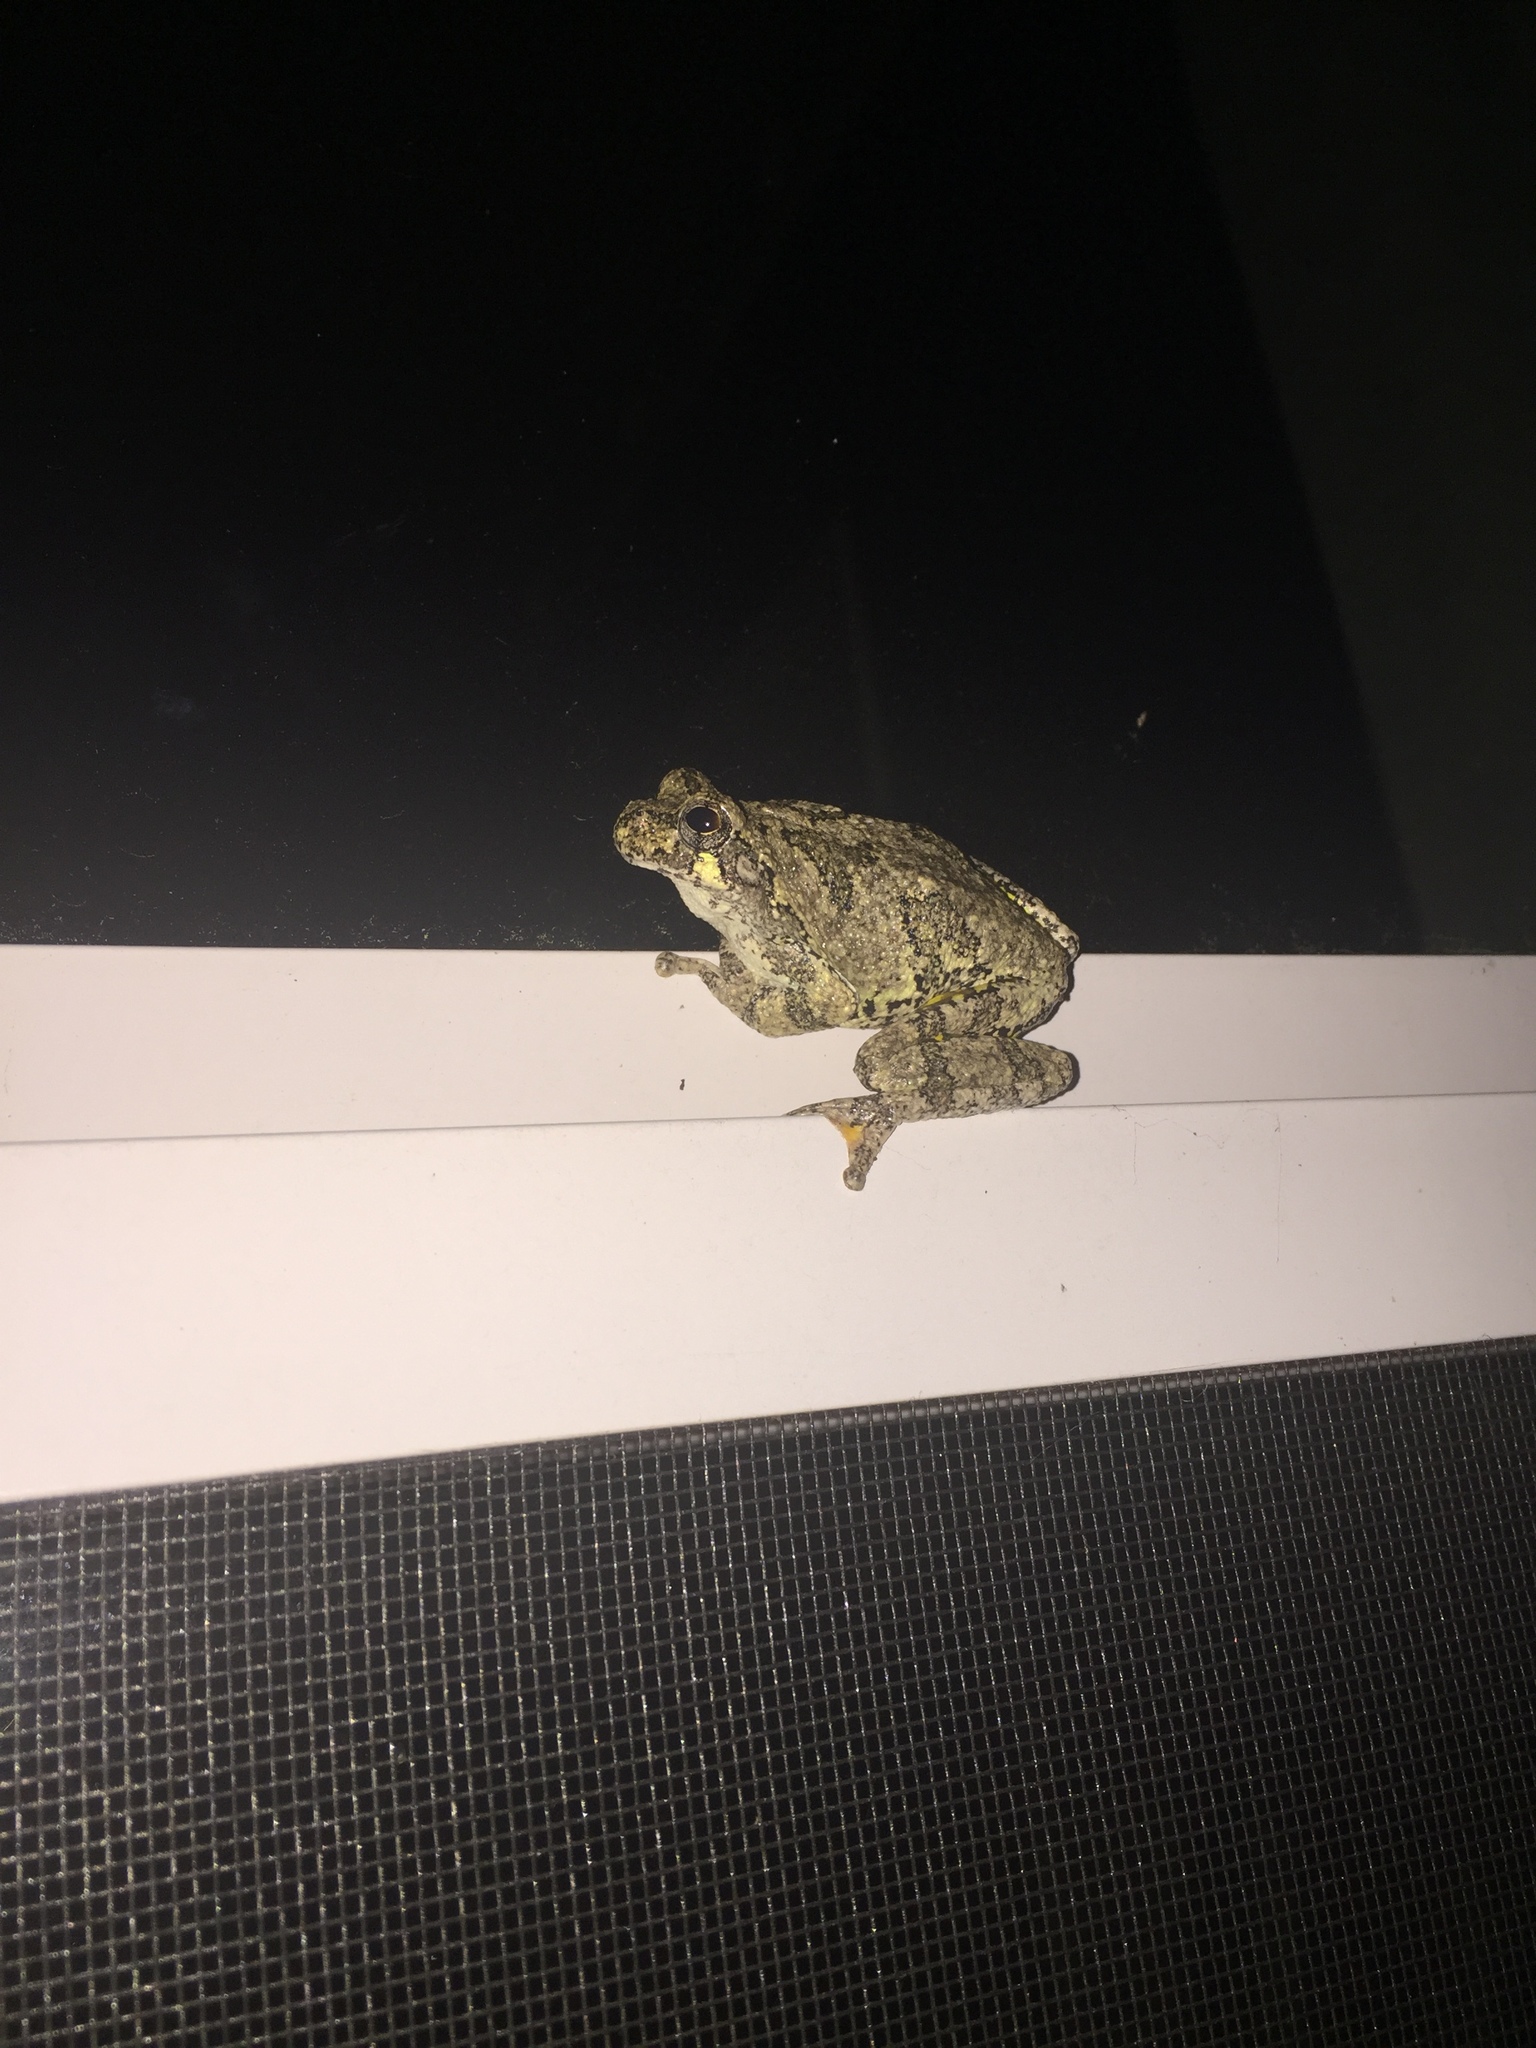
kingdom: Animalia
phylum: Chordata
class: Amphibia
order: Anura
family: Hylidae
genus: Dryophytes
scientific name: Dryophytes chrysoscelis
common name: Cope's gray treefrog
